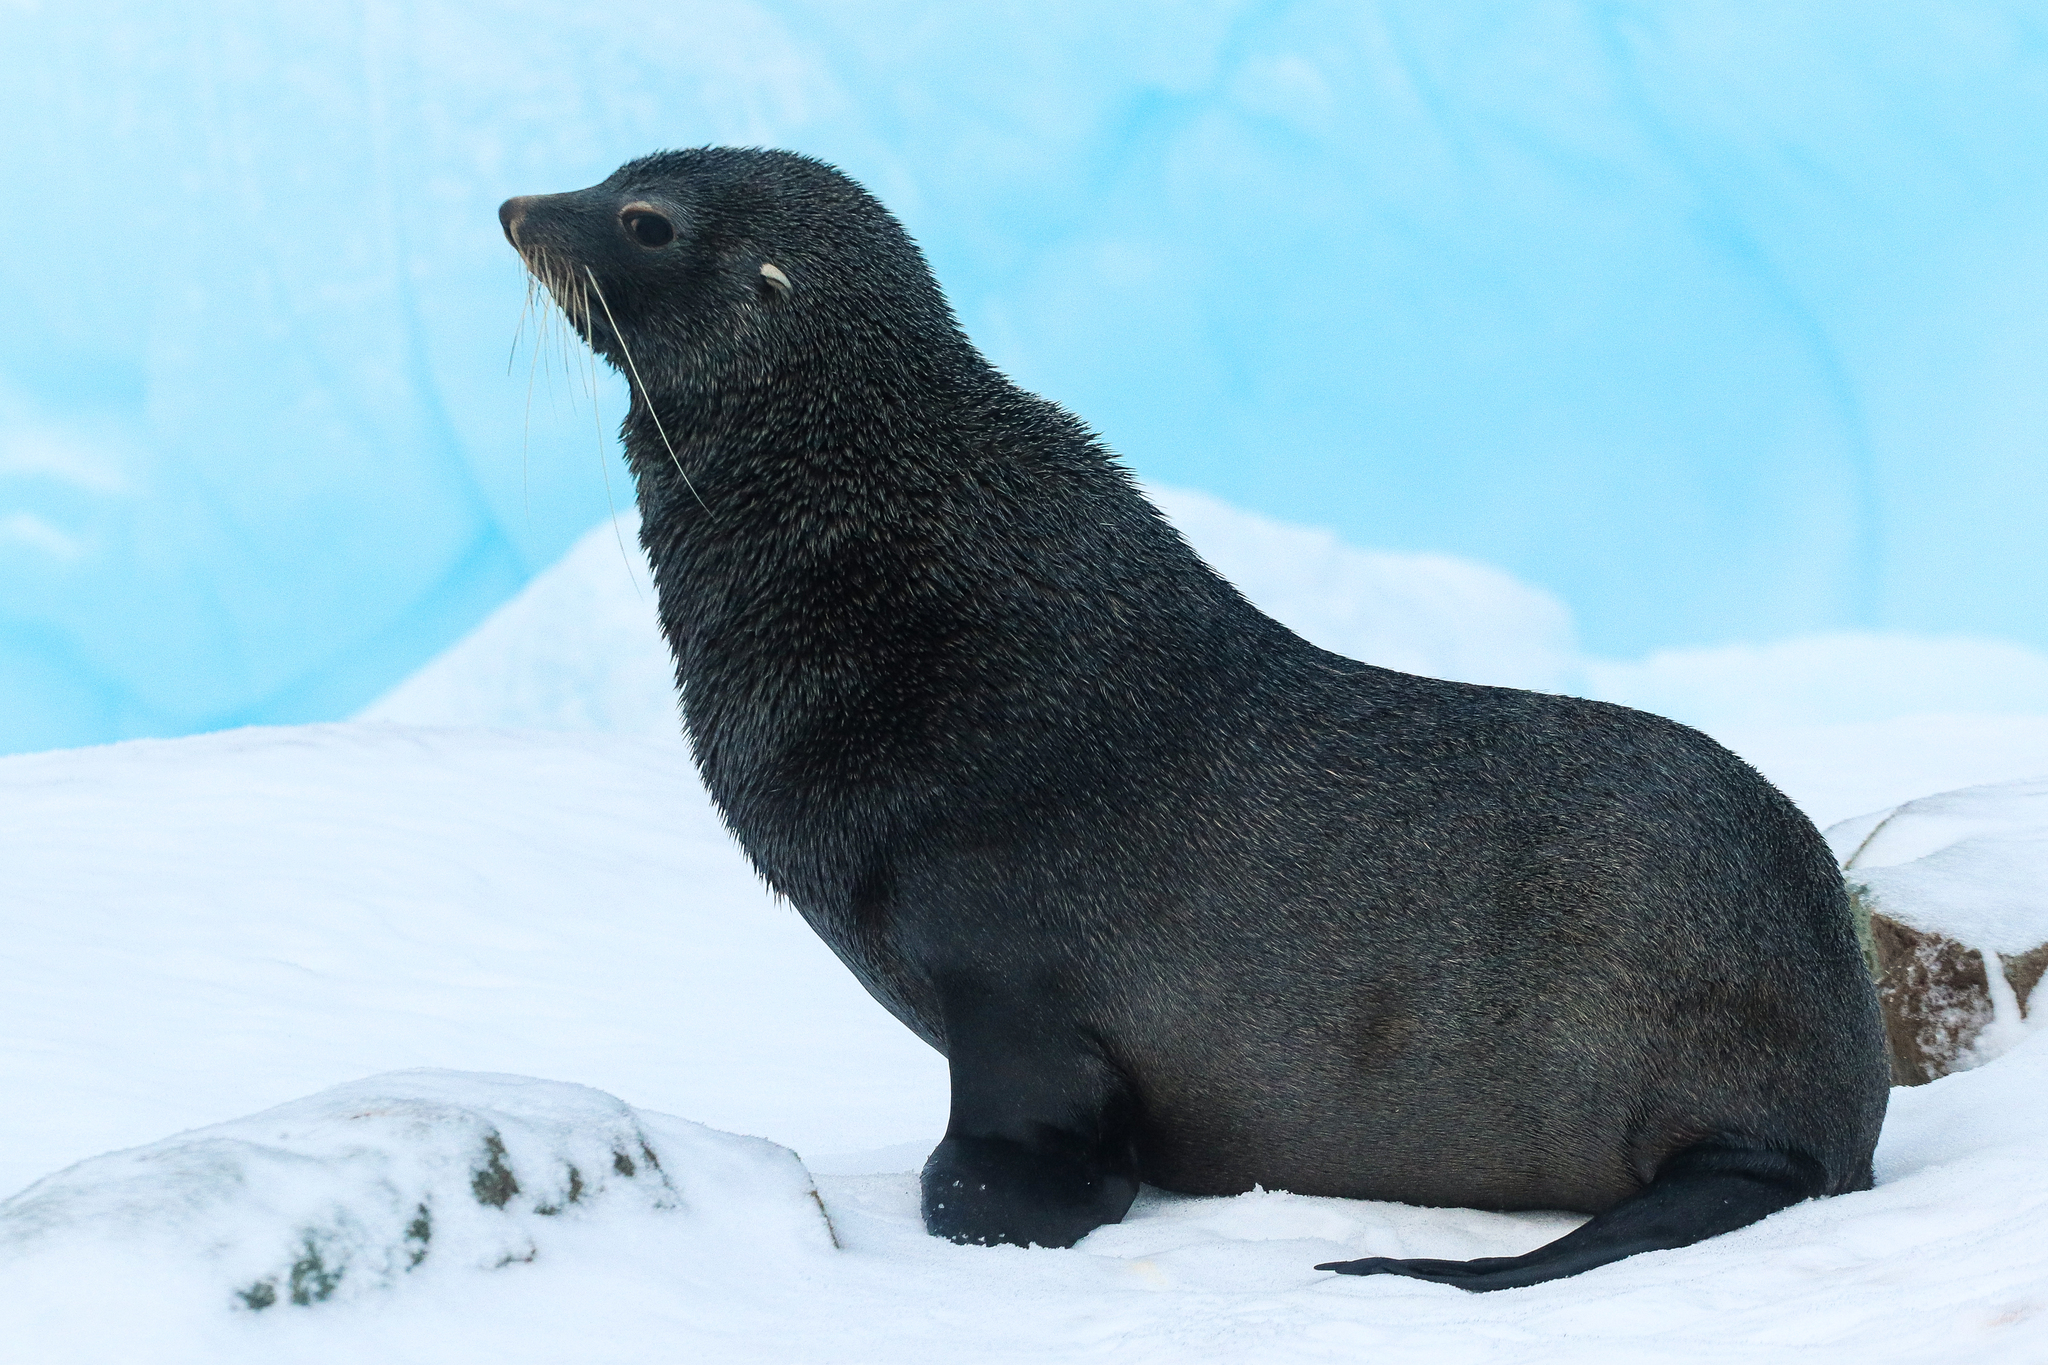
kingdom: Animalia
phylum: Chordata
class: Mammalia
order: Carnivora
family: Otariidae
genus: Arctocephalus
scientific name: Arctocephalus gazella
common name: Antarctic fur seal
